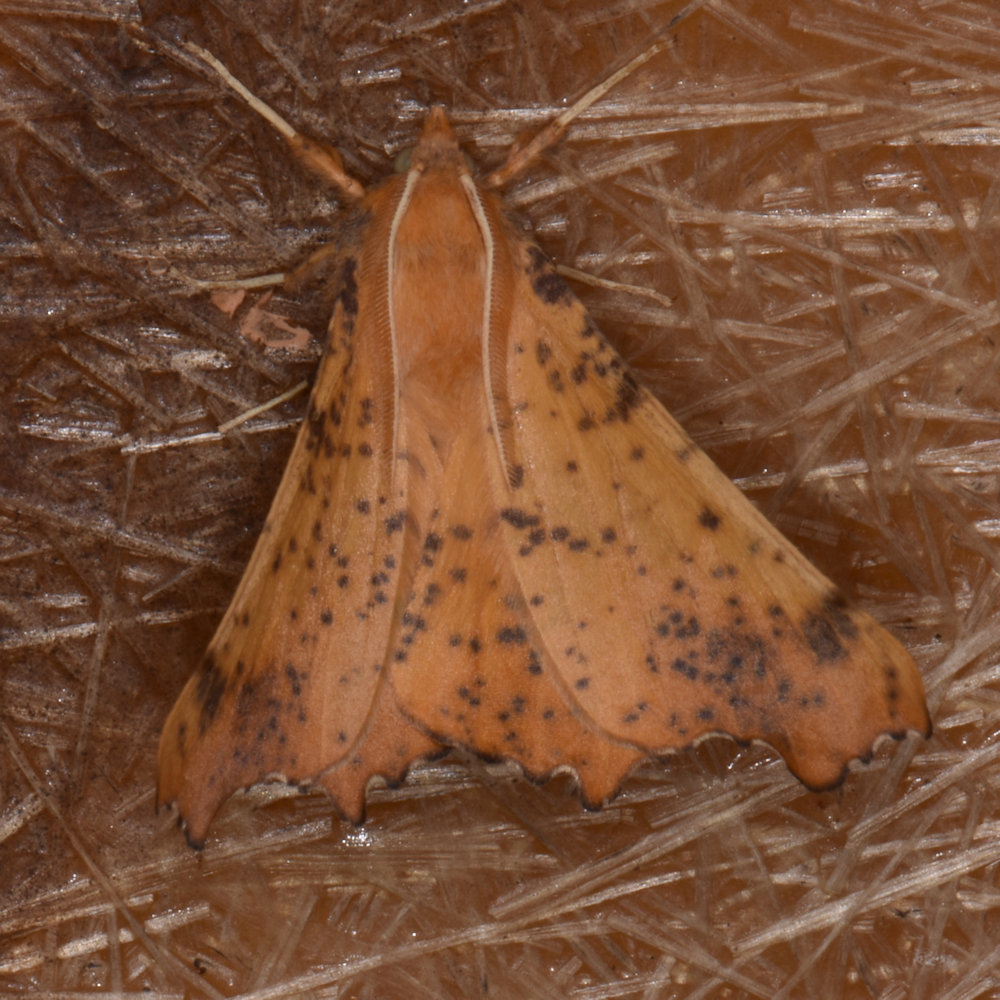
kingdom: Animalia
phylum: Arthropoda
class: Insecta
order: Lepidoptera
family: Geometridae
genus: Ennomos
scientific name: Ennomos magnaria
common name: Maple spanworm
